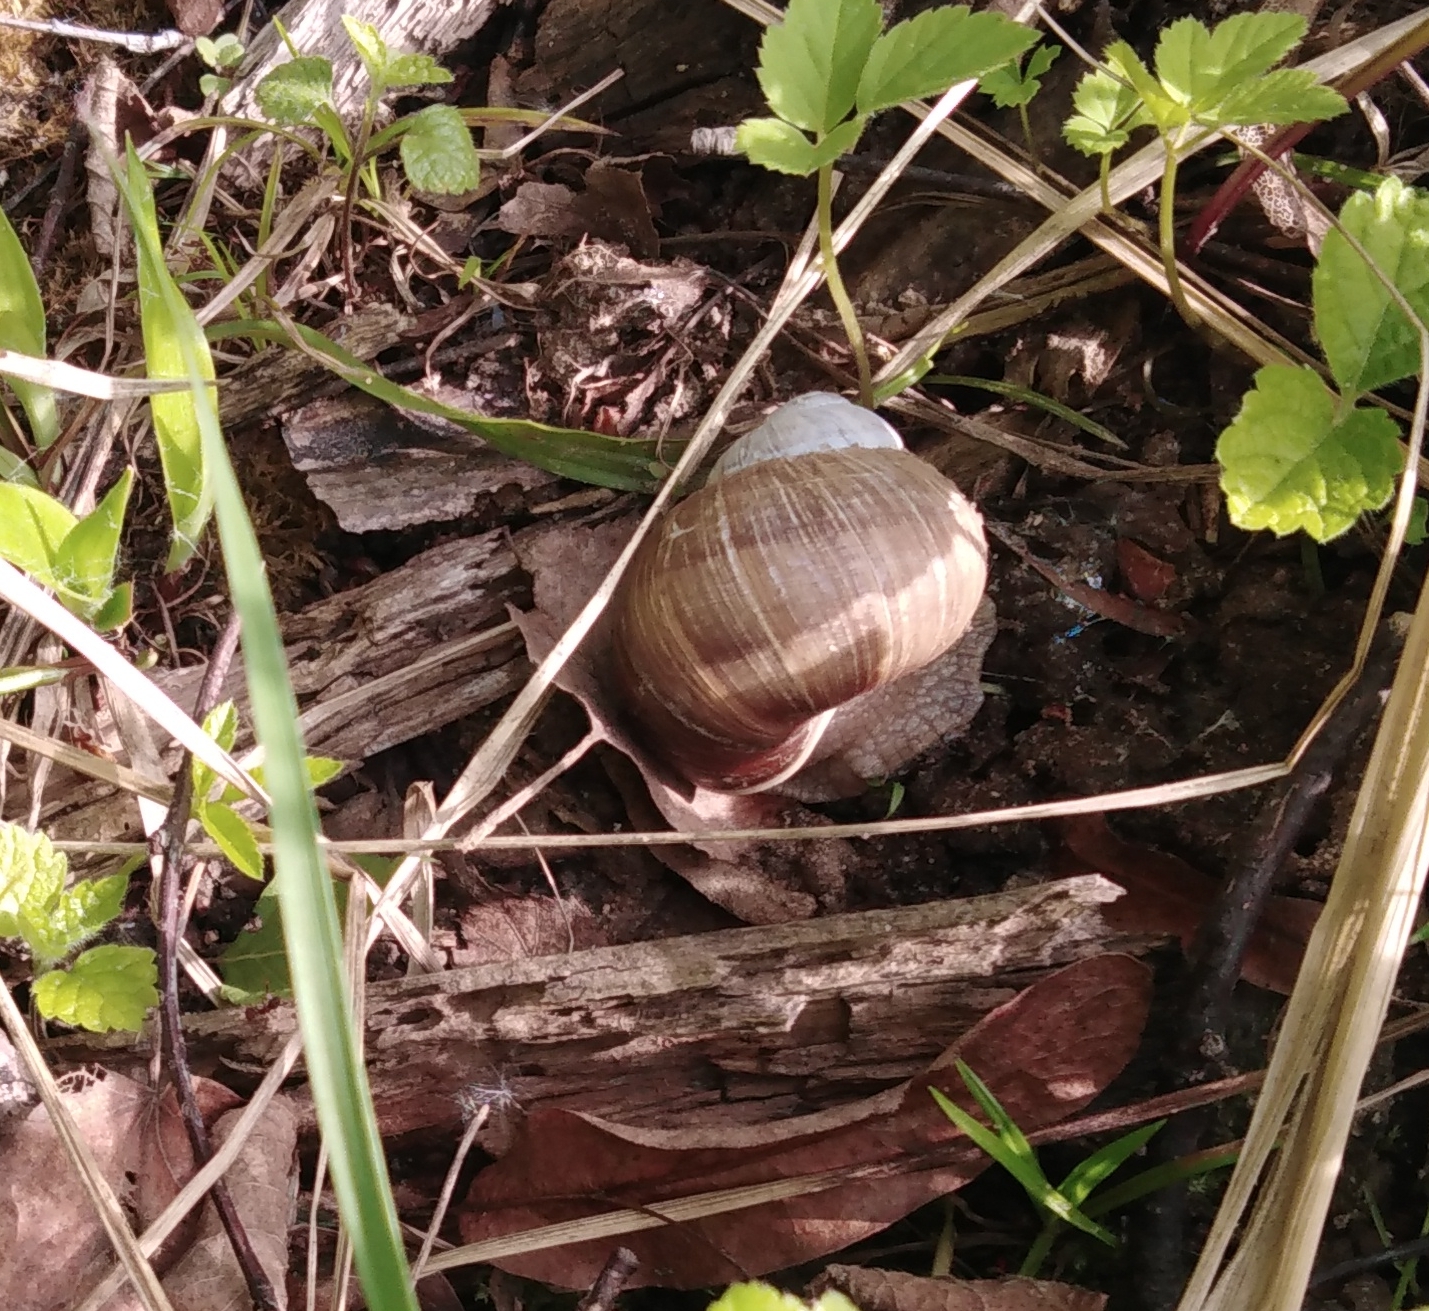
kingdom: Animalia
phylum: Mollusca
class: Gastropoda
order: Stylommatophora
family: Helicidae
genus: Helix
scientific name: Helix pomatia
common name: Roman snail
